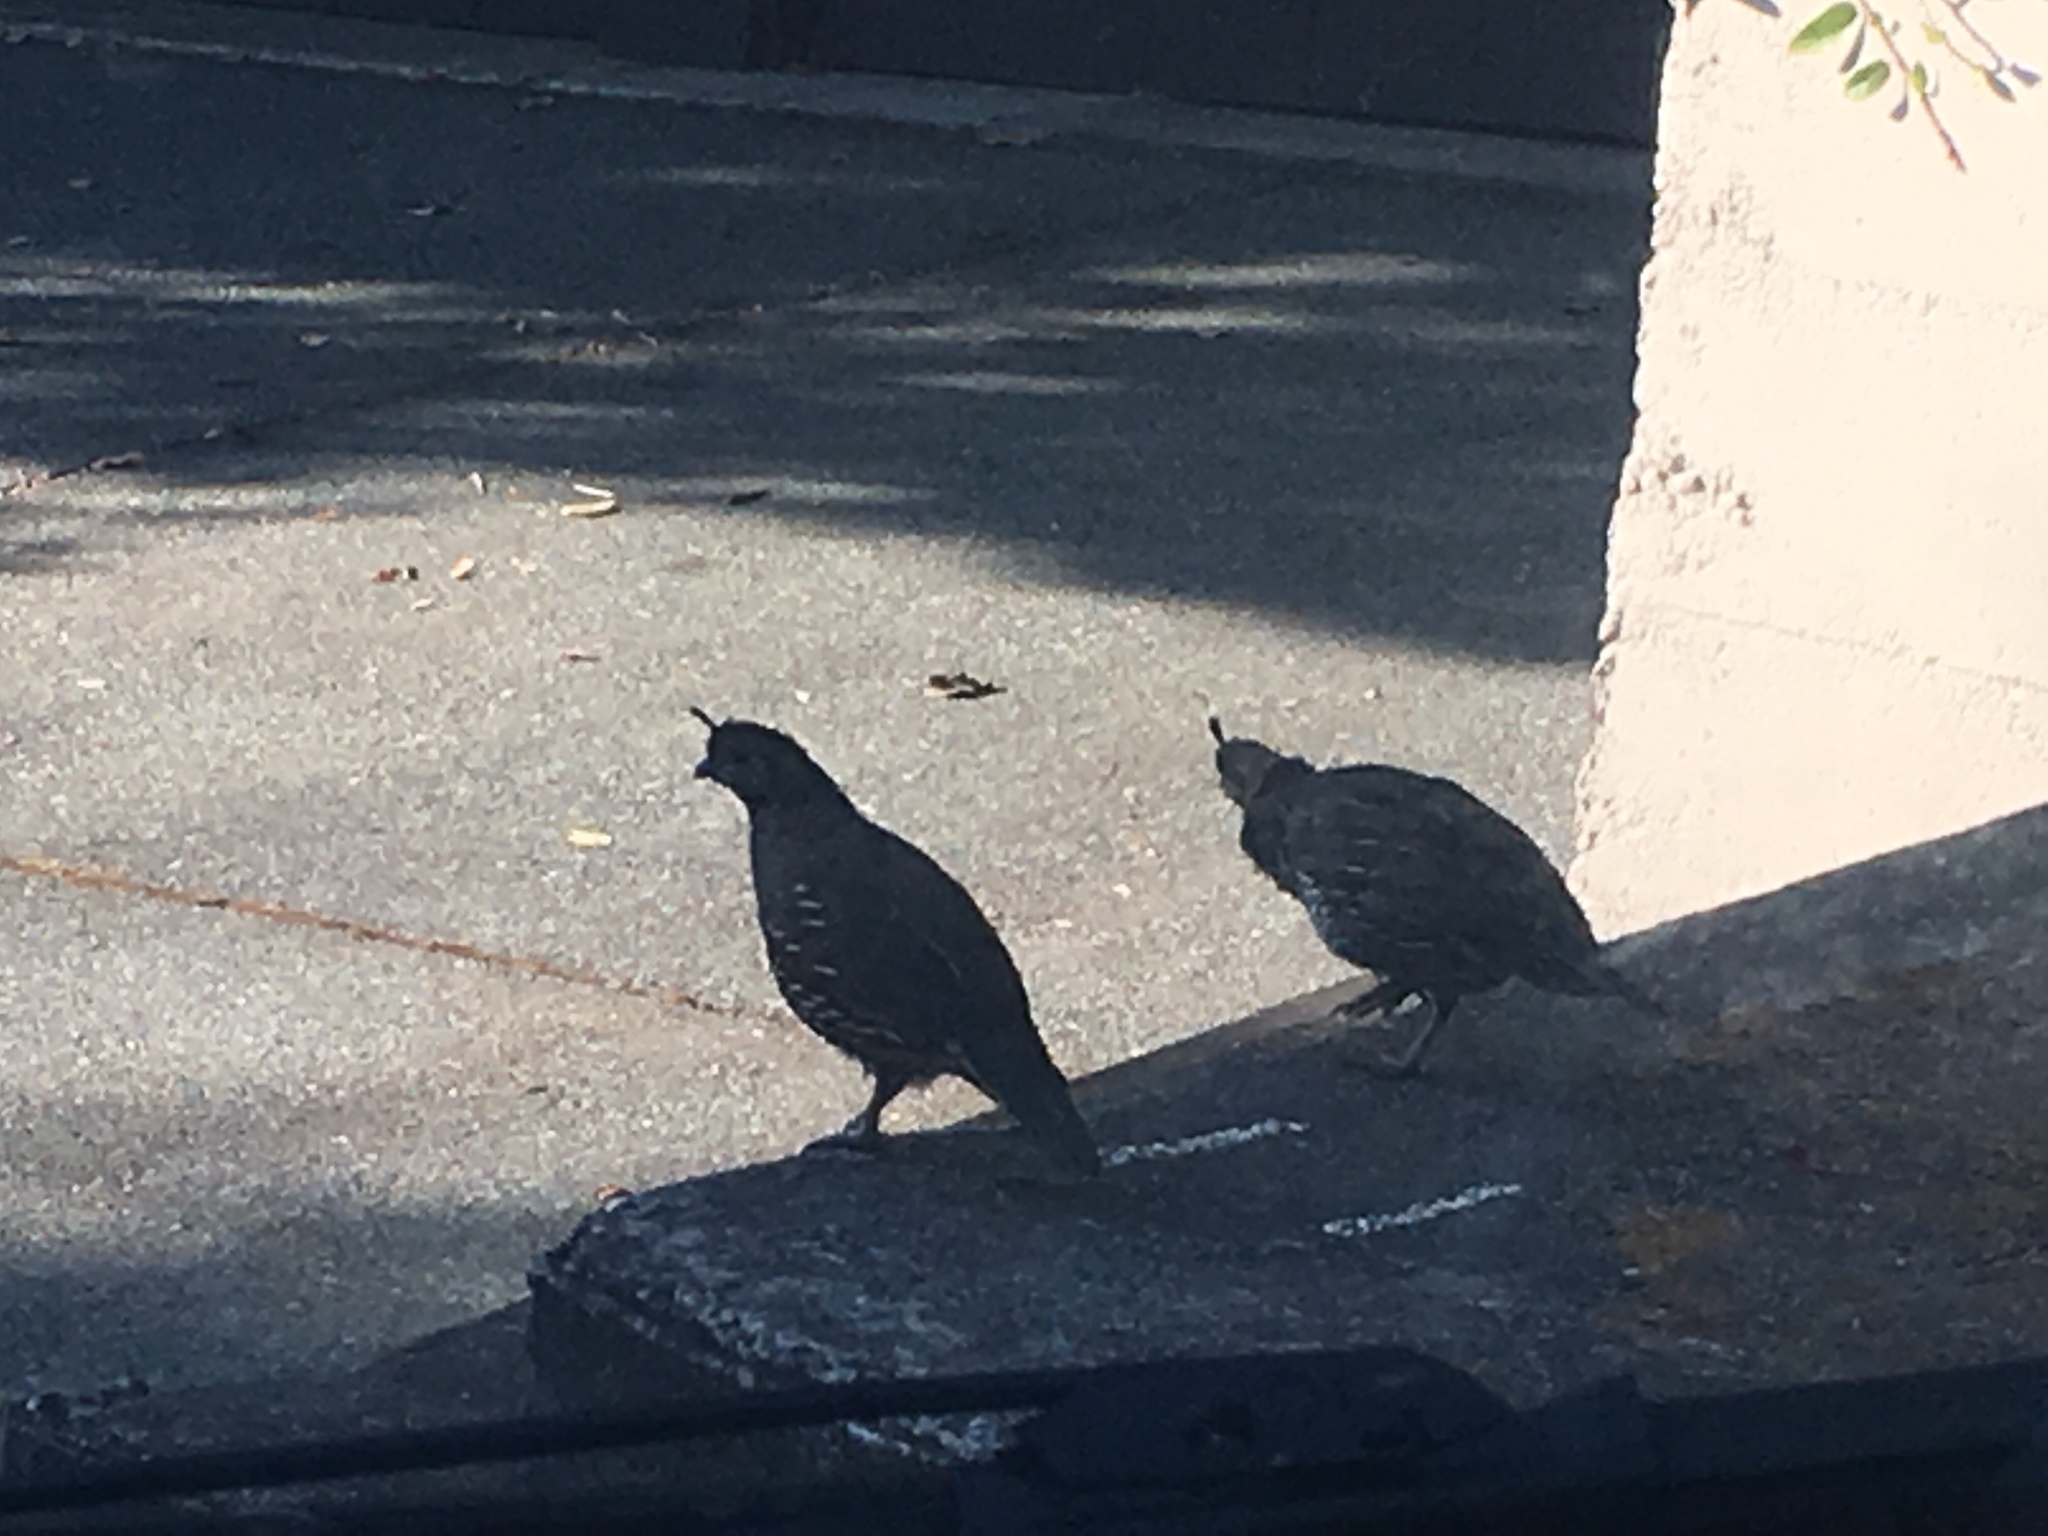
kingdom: Animalia
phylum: Chordata
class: Aves
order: Galliformes
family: Odontophoridae
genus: Callipepla
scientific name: Callipepla californica
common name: California quail
